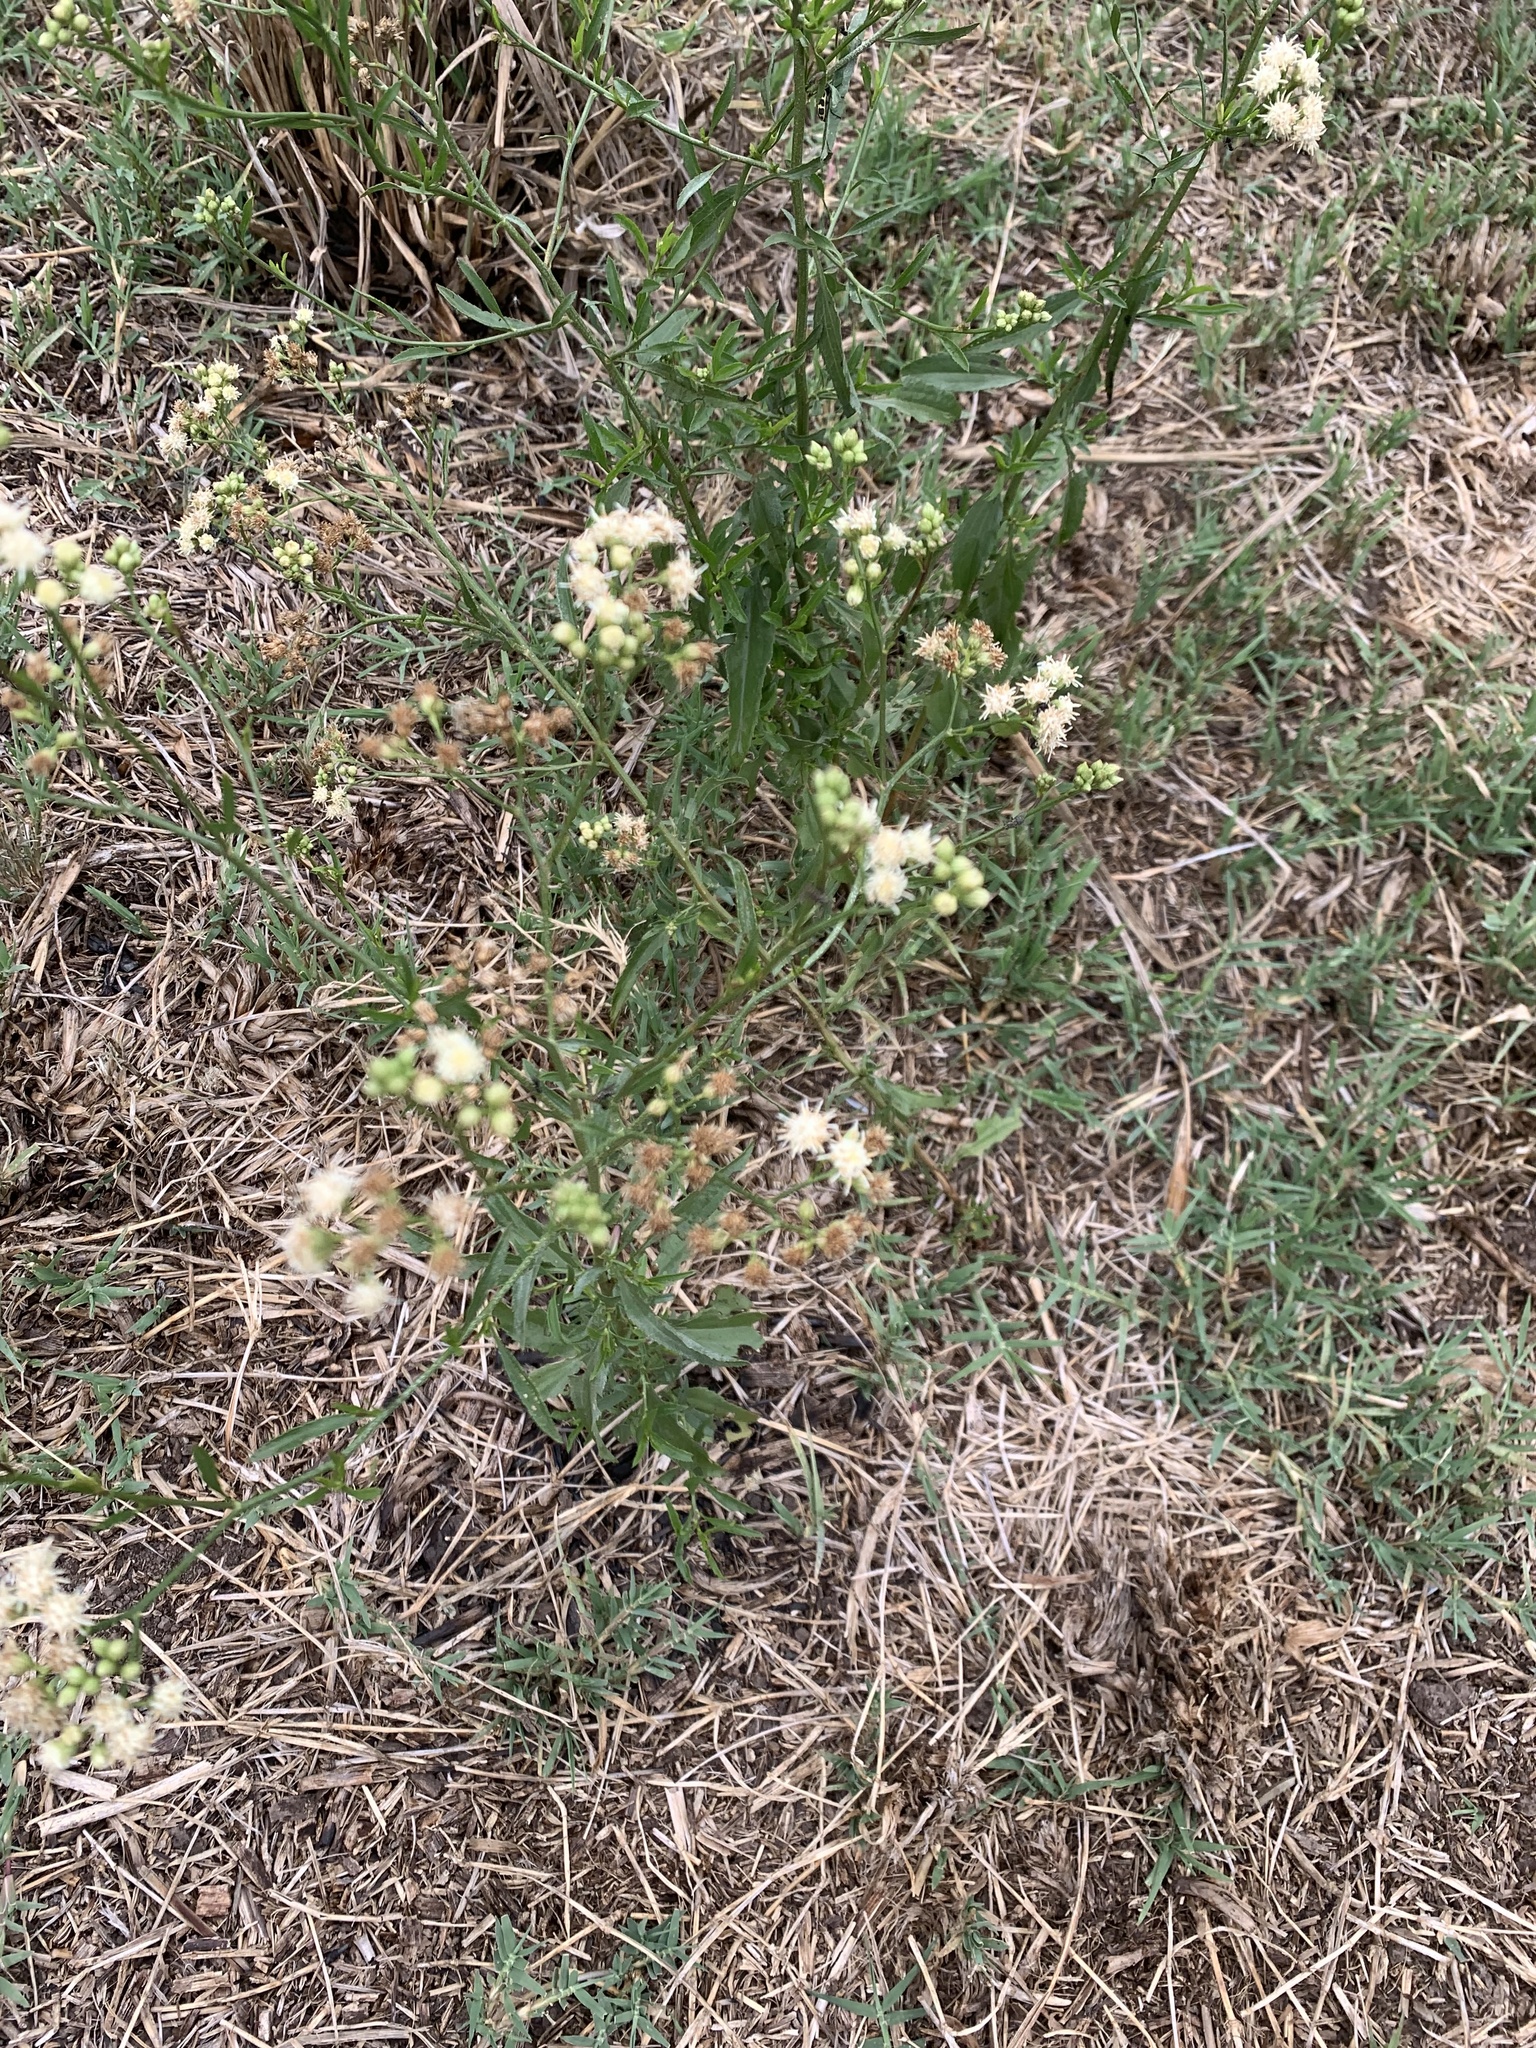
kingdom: Plantae
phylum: Tracheophyta
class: Magnoliopsida
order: Asterales
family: Asteraceae
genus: Baccharis
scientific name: Baccharis glutinosa
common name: Saltmarsh baccharis
